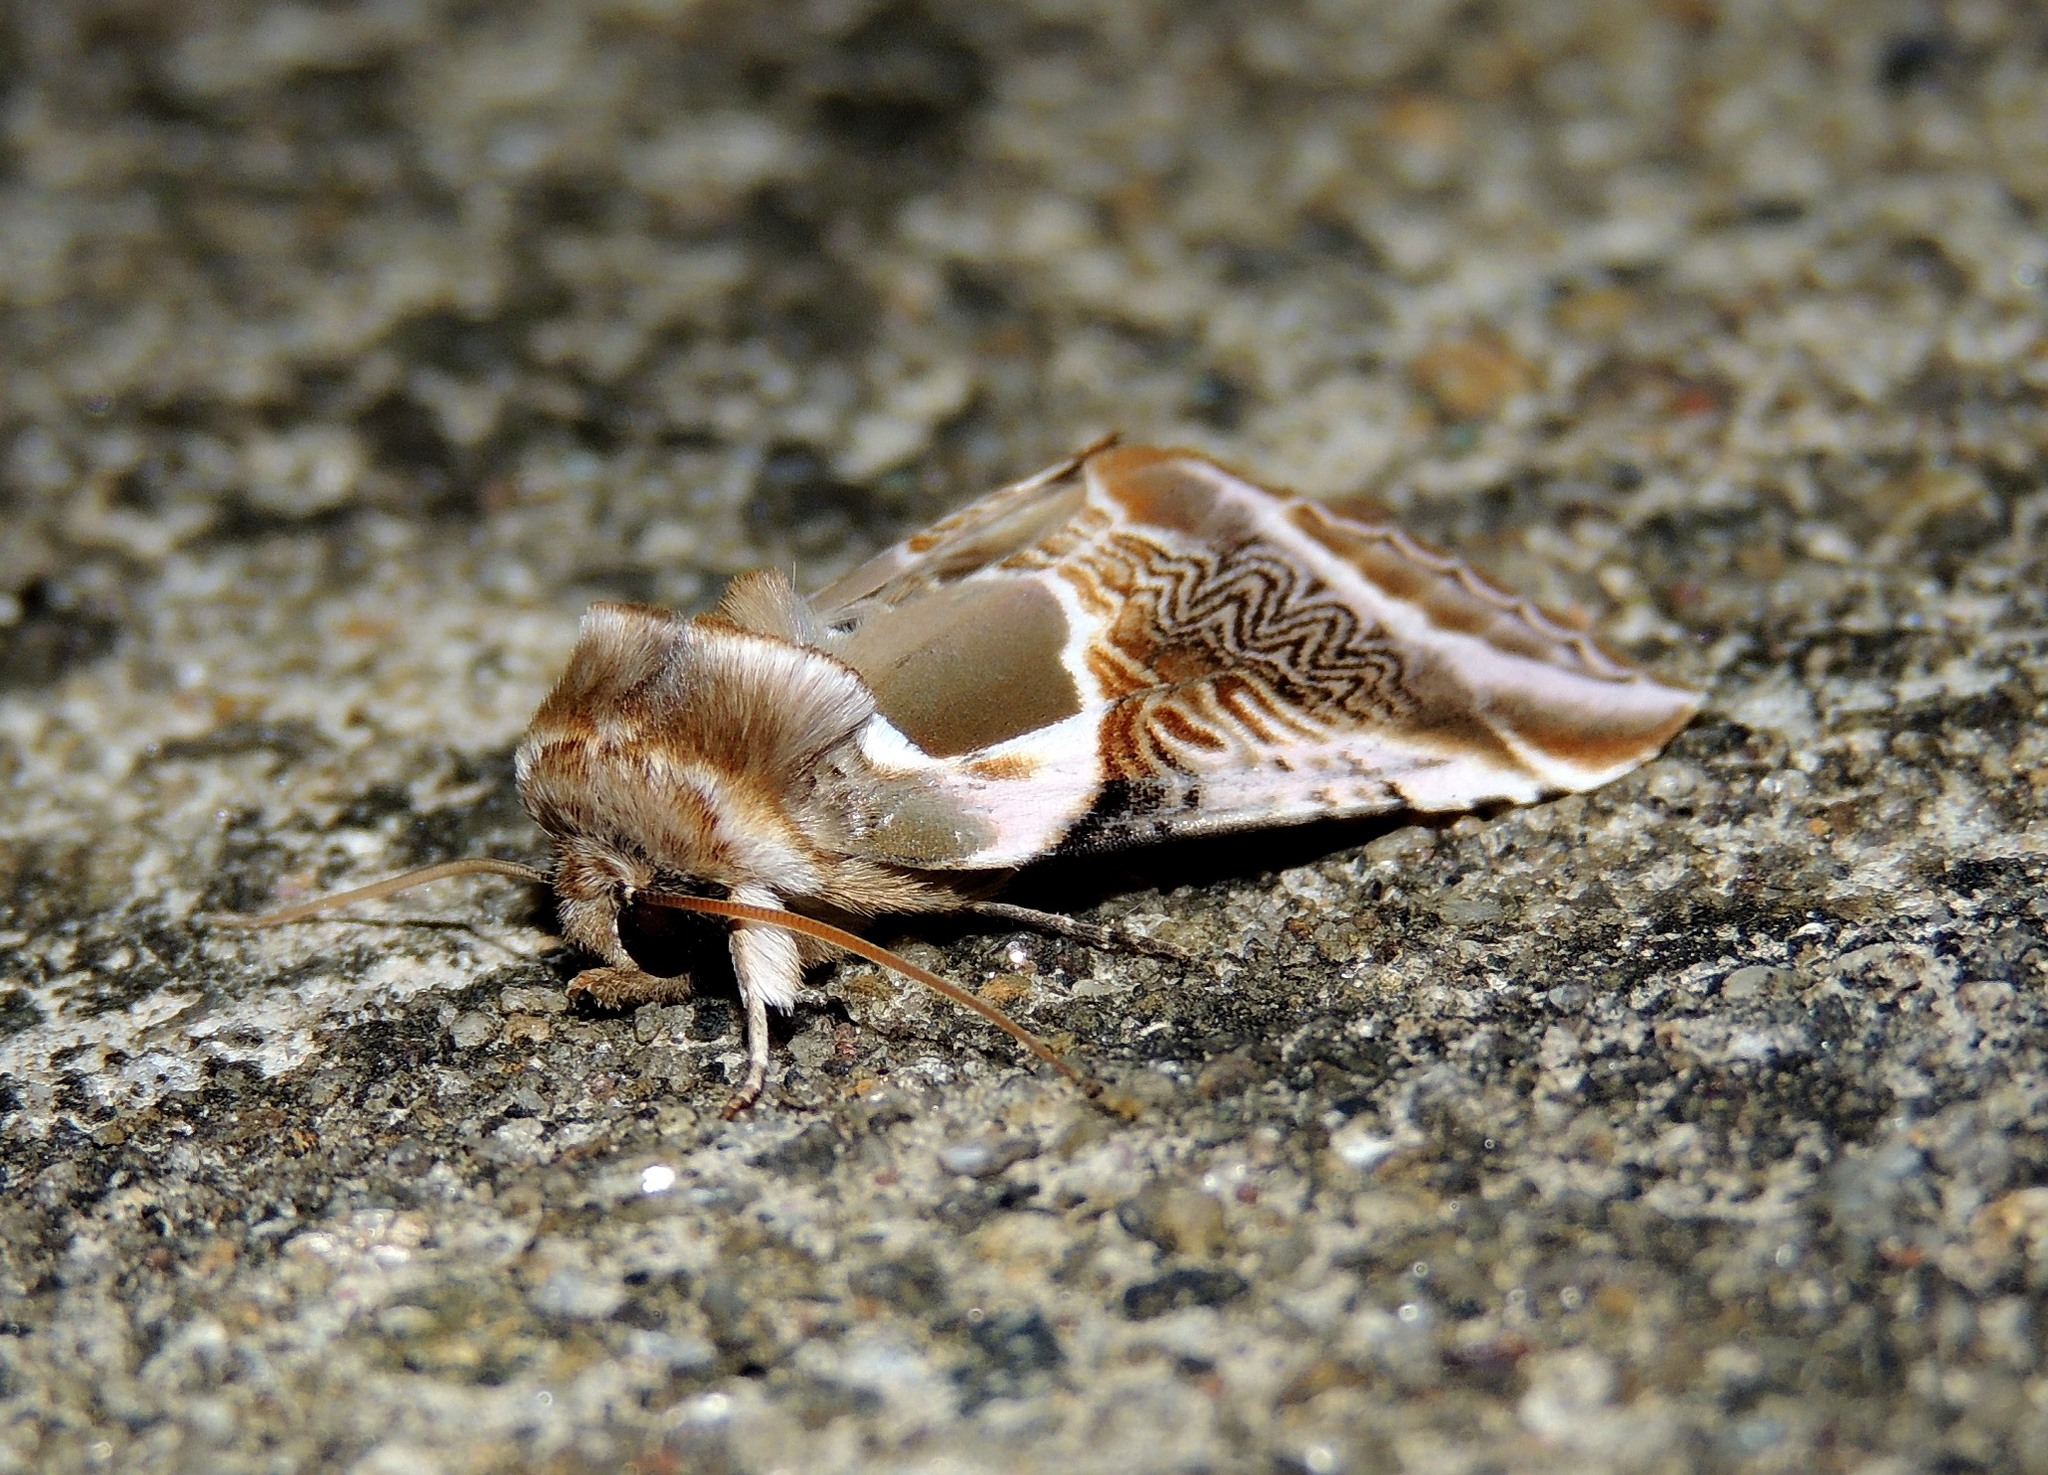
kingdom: Animalia
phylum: Arthropoda
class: Insecta
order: Lepidoptera
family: Drepanidae
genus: Habrosyne
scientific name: Habrosyne scripta
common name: Lettered habrosyne moth
